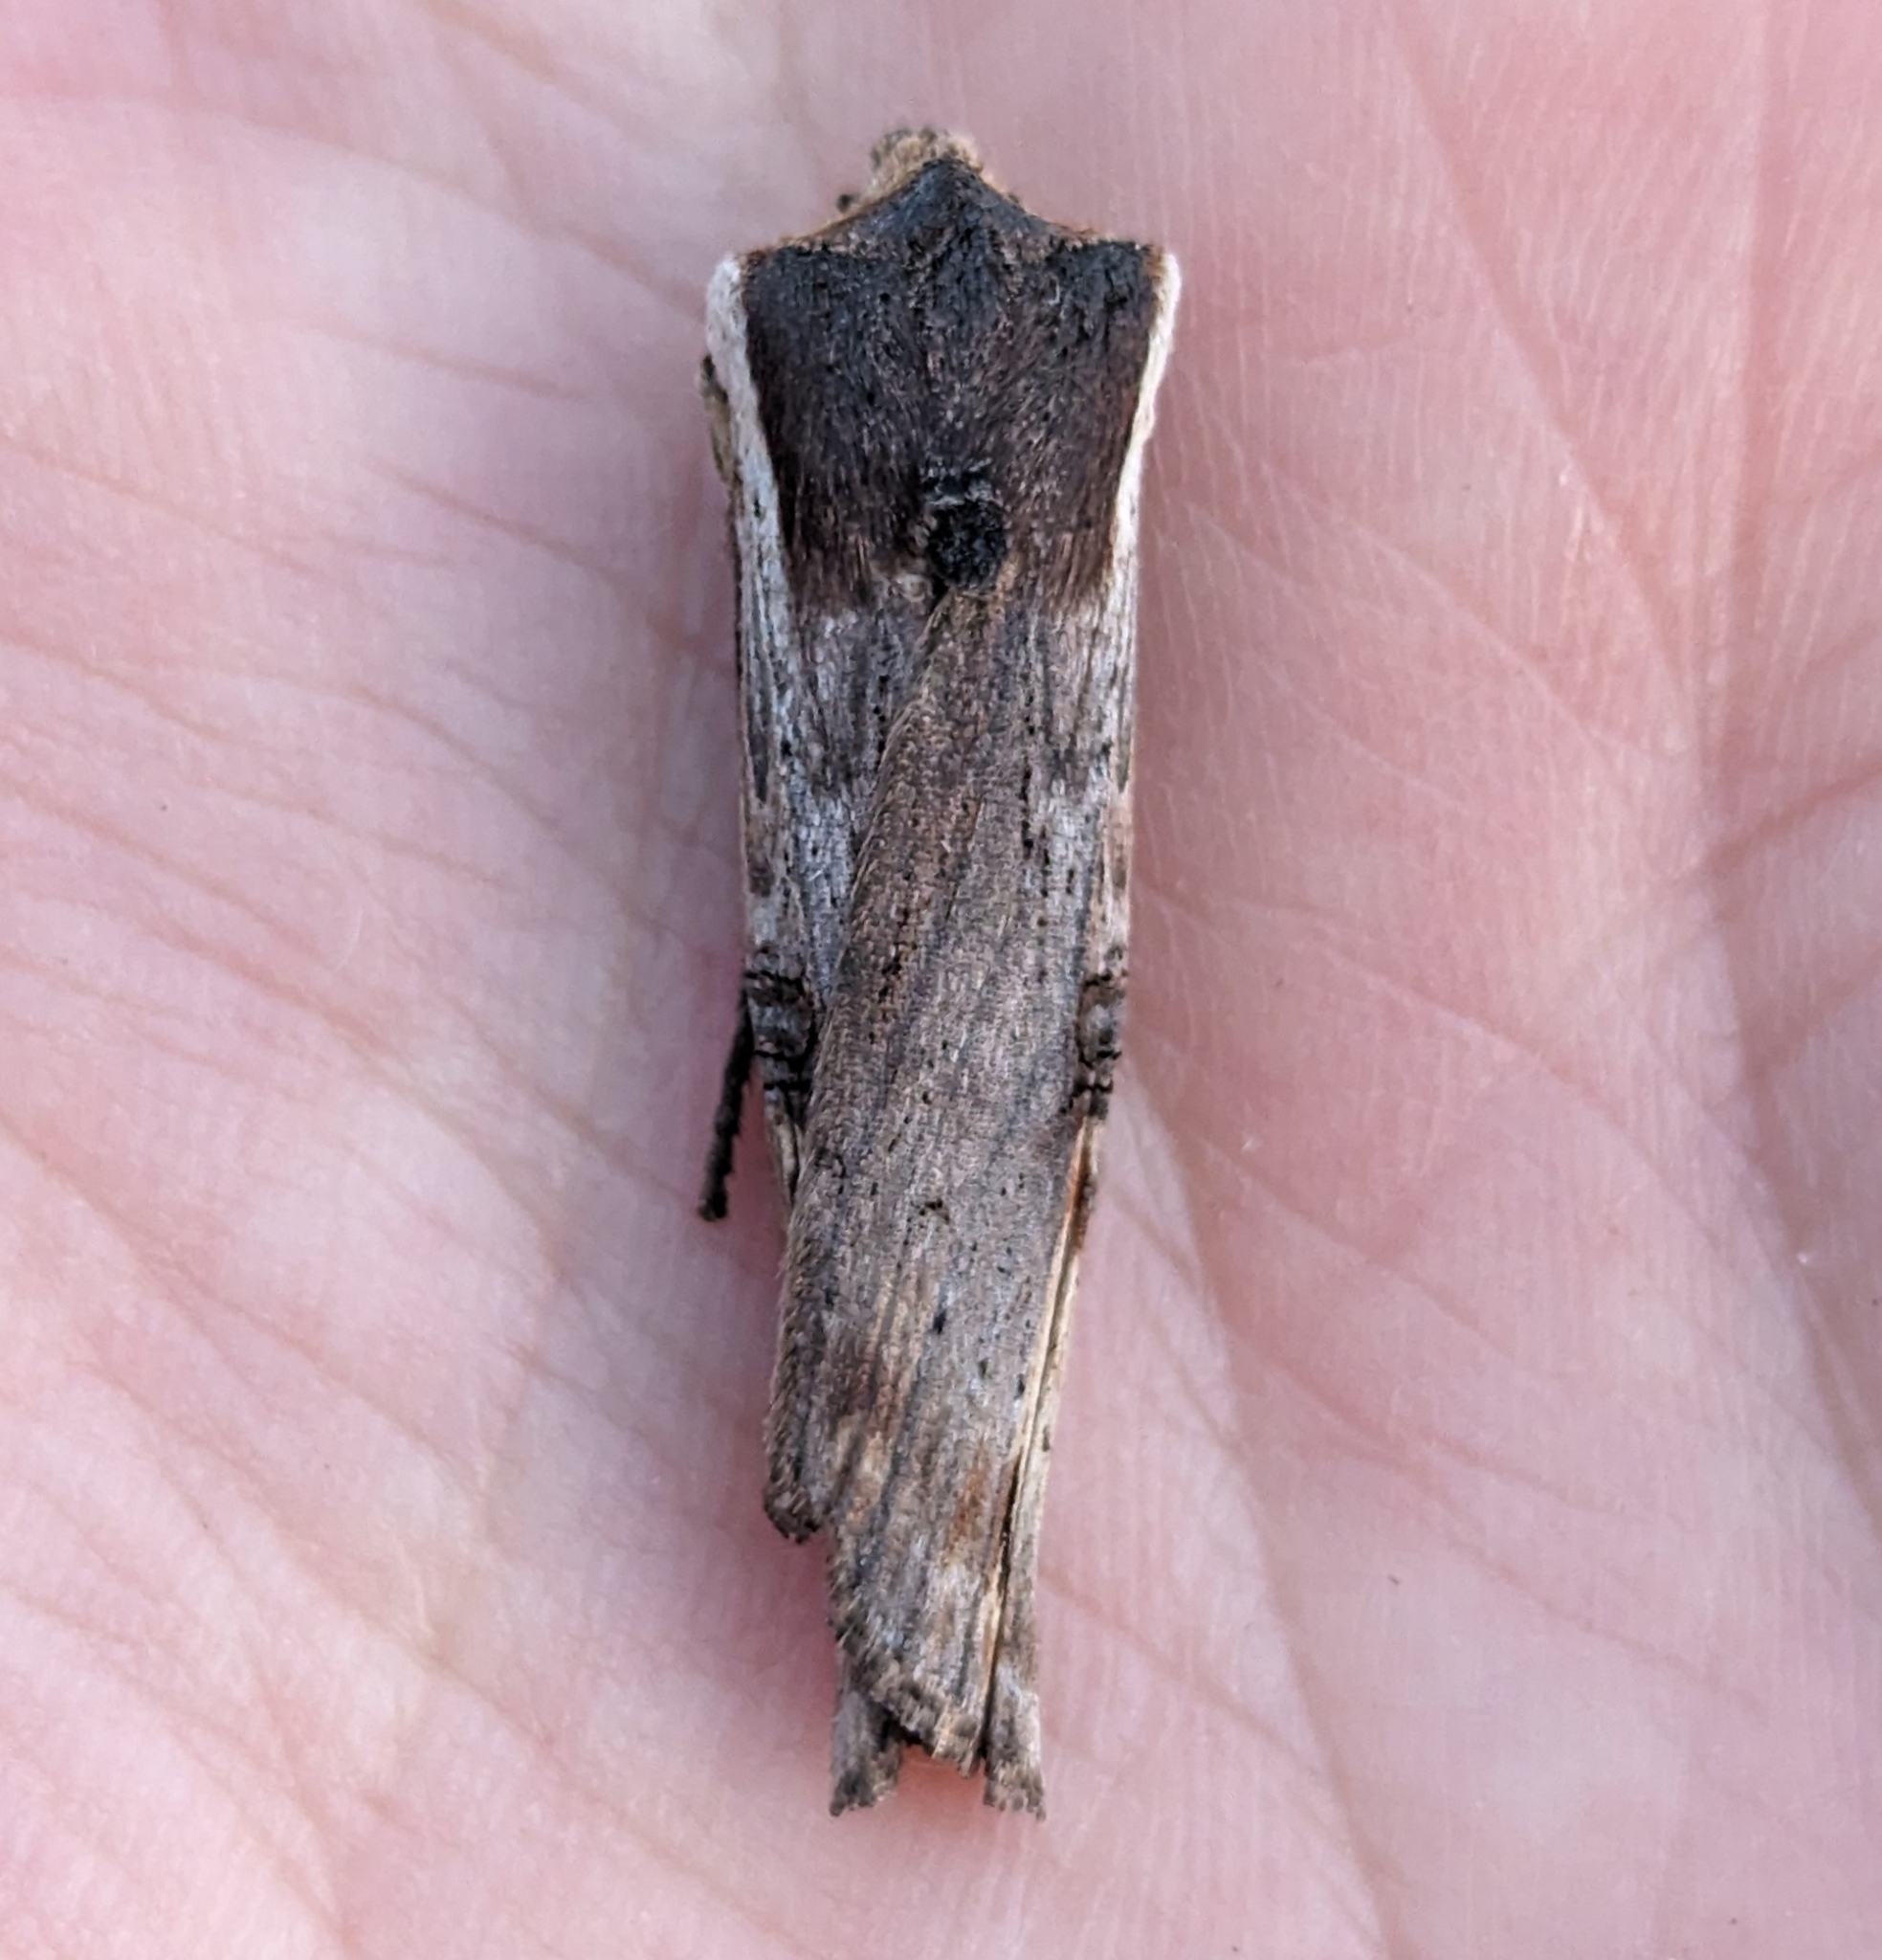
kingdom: Animalia
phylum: Arthropoda
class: Insecta
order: Lepidoptera
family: Noctuidae
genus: Xylena
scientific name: Xylena curvimacula
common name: Dot-and-dash swordgrass moth
